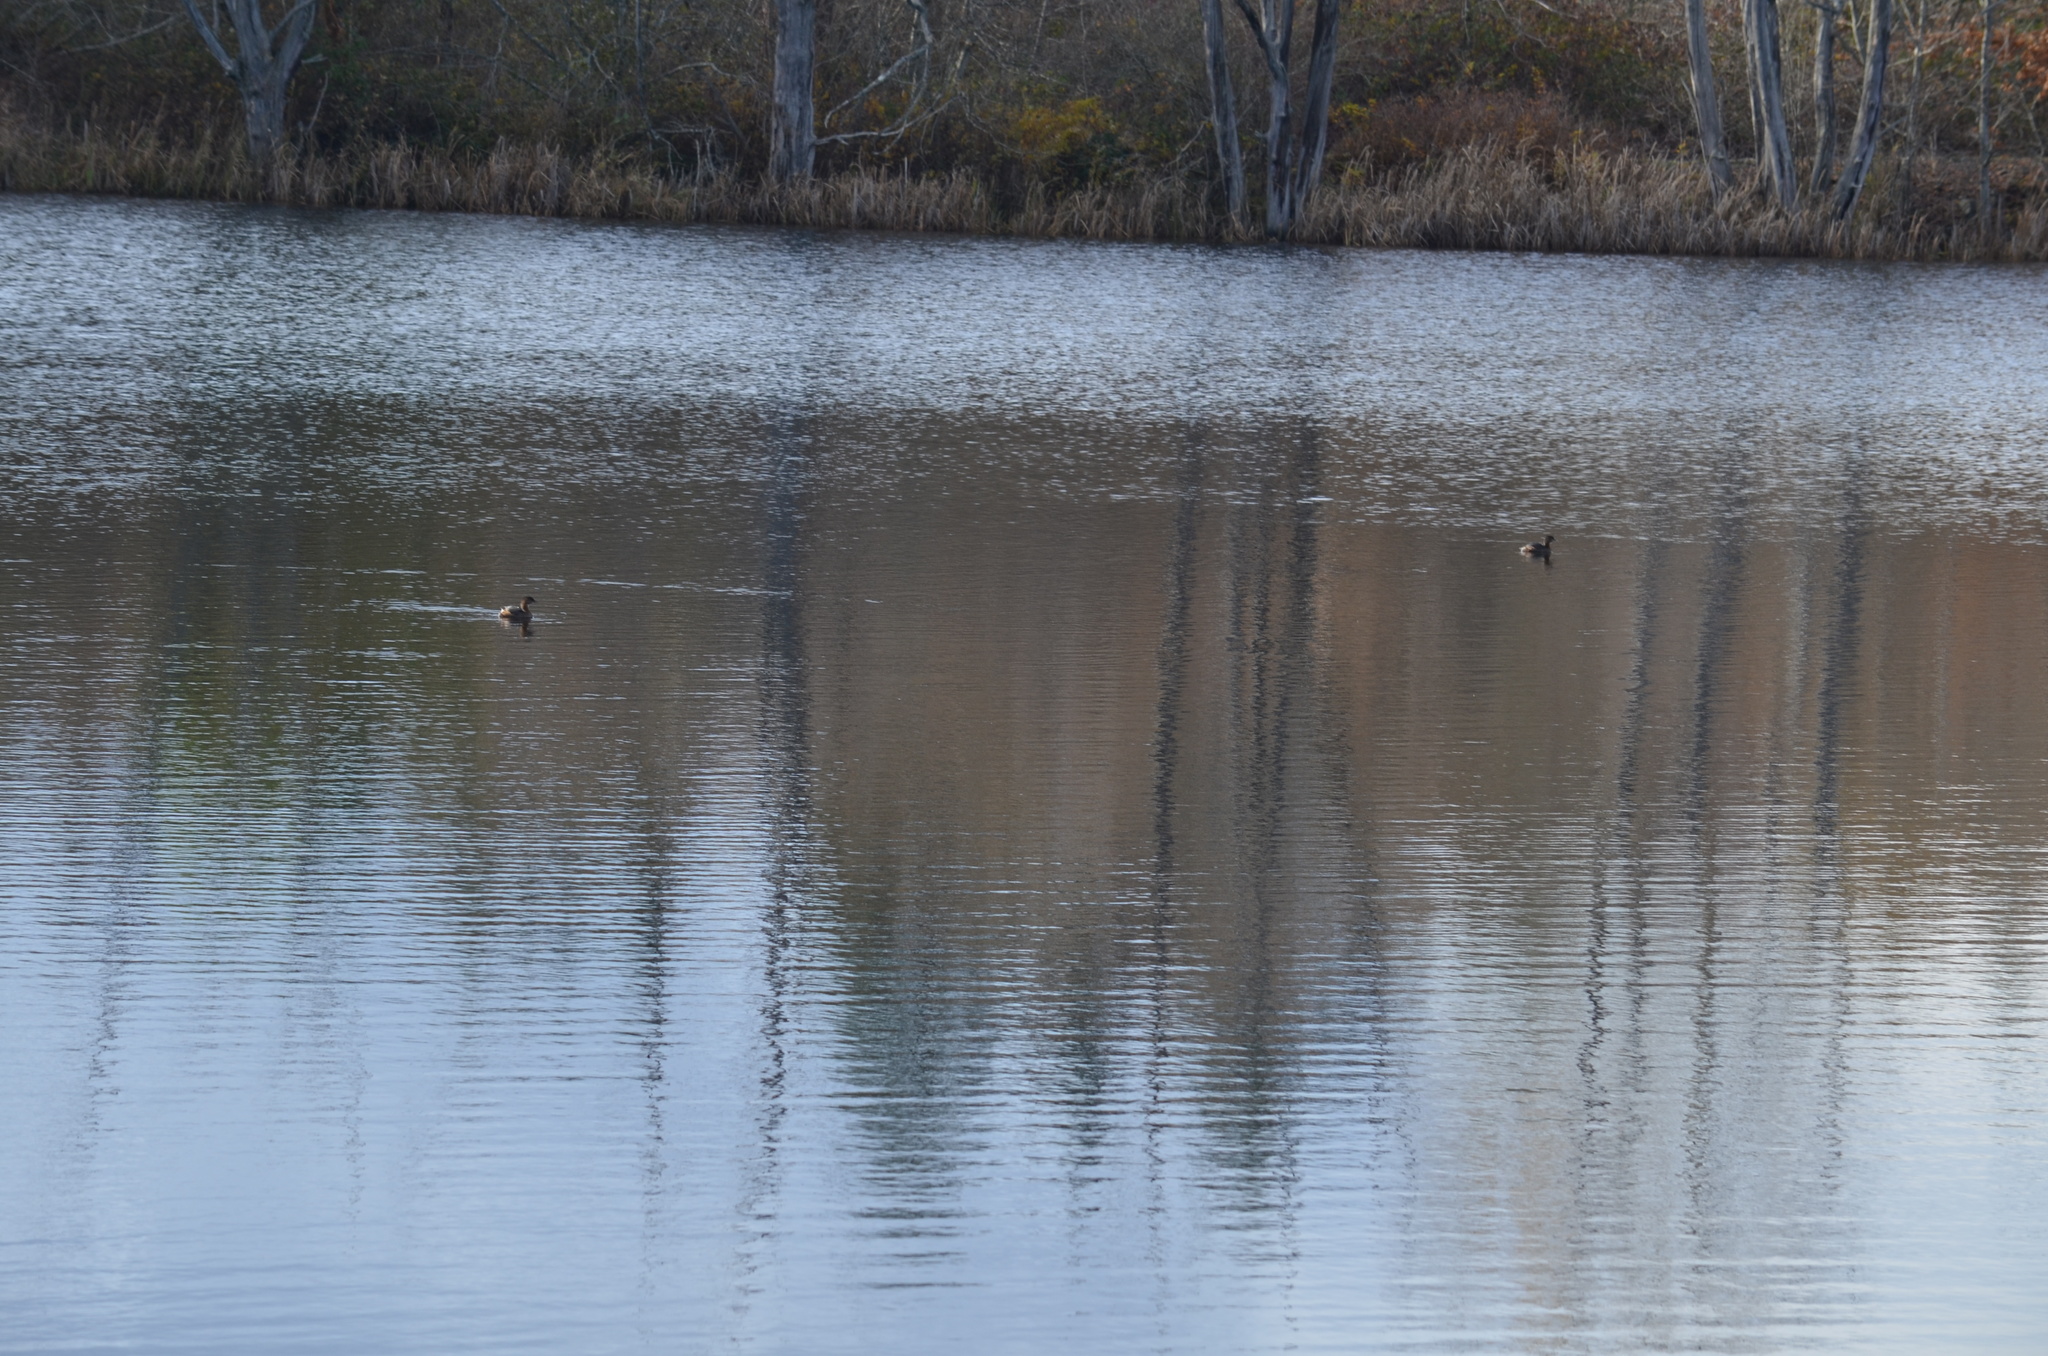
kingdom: Animalia
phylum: Chordata
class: Aves
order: Podicipediformes
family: Podicipedidae
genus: Podilymbus
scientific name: Podilymbus podiceps
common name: Pied-billed grebe
